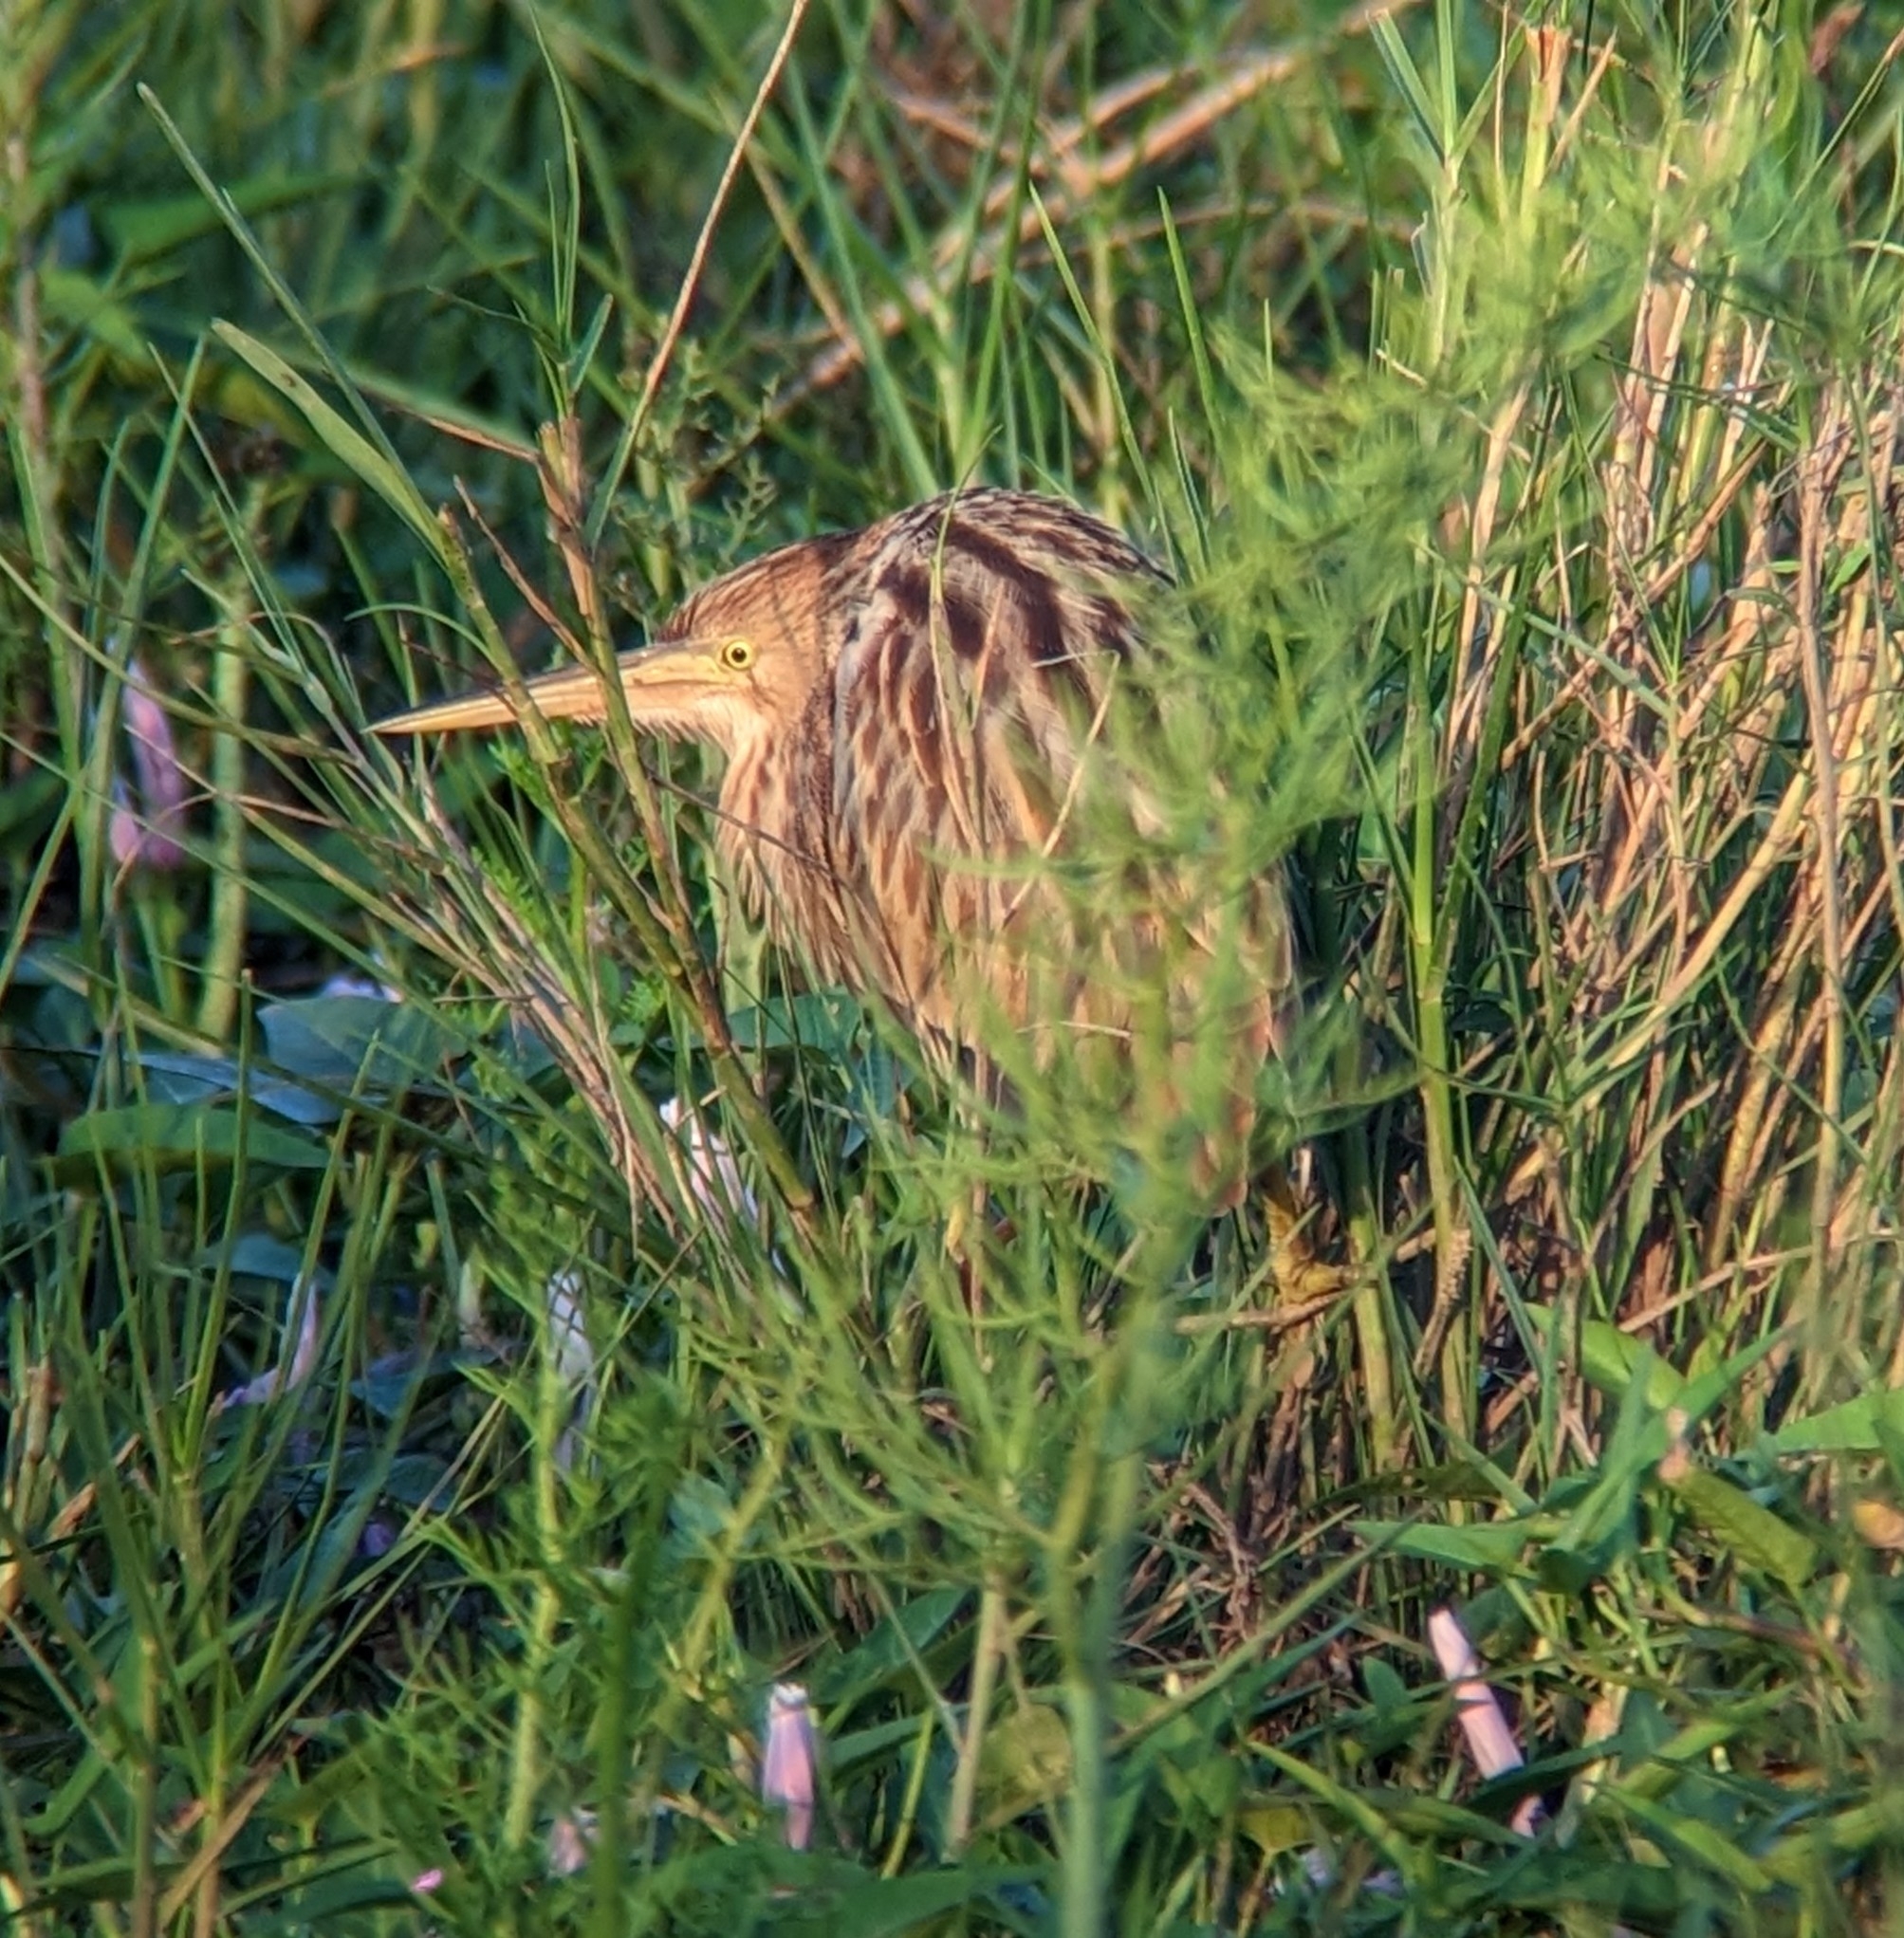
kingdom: Animalia
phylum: Chordata
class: Aves
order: Pelecaniformes
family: Ardeidae
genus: Ixobrychus
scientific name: Ixobrychus sinensis
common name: Yellow bittern
